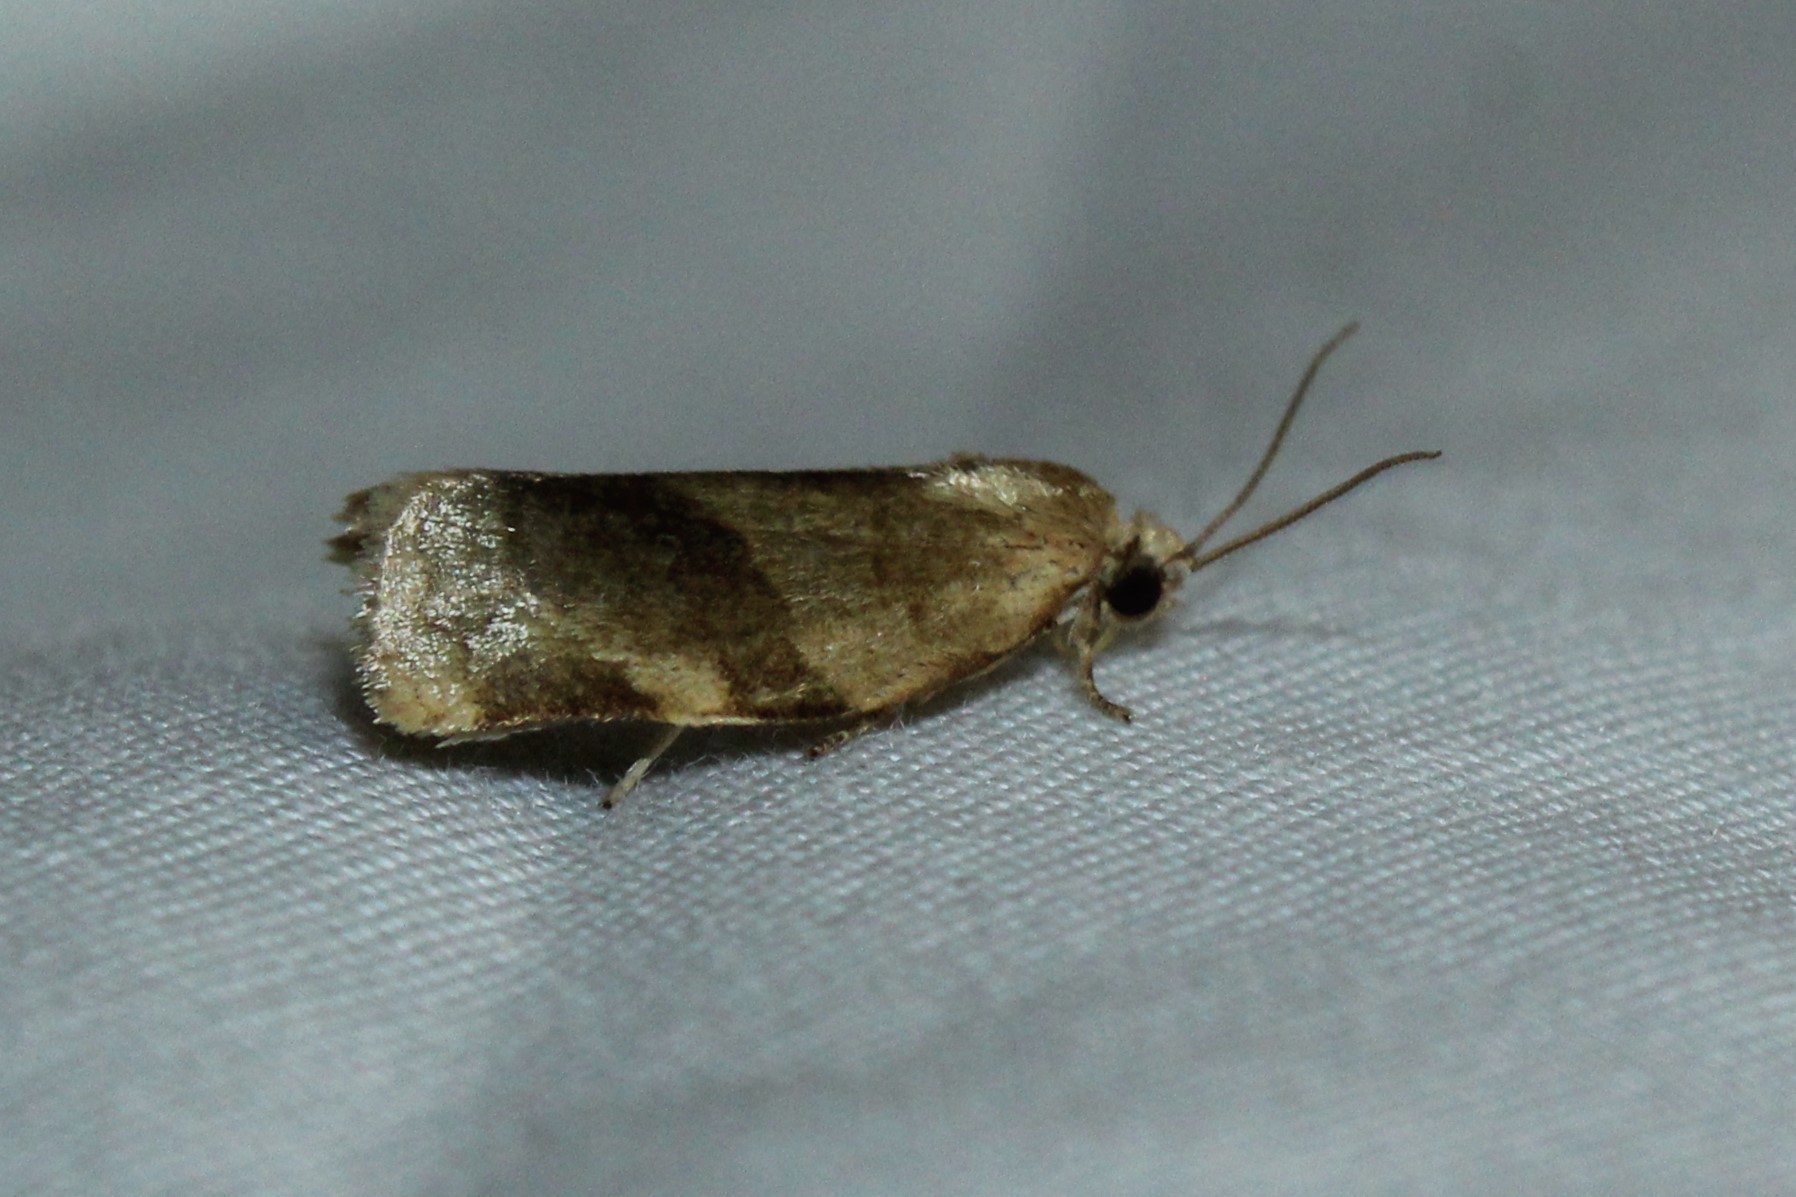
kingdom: Animalia
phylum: Arthropoda
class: Insecta
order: Lepidoptera
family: Tortricidae
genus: Choristoneura
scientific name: Choristoneura fractivittana
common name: Broken-banded leafroller moth
